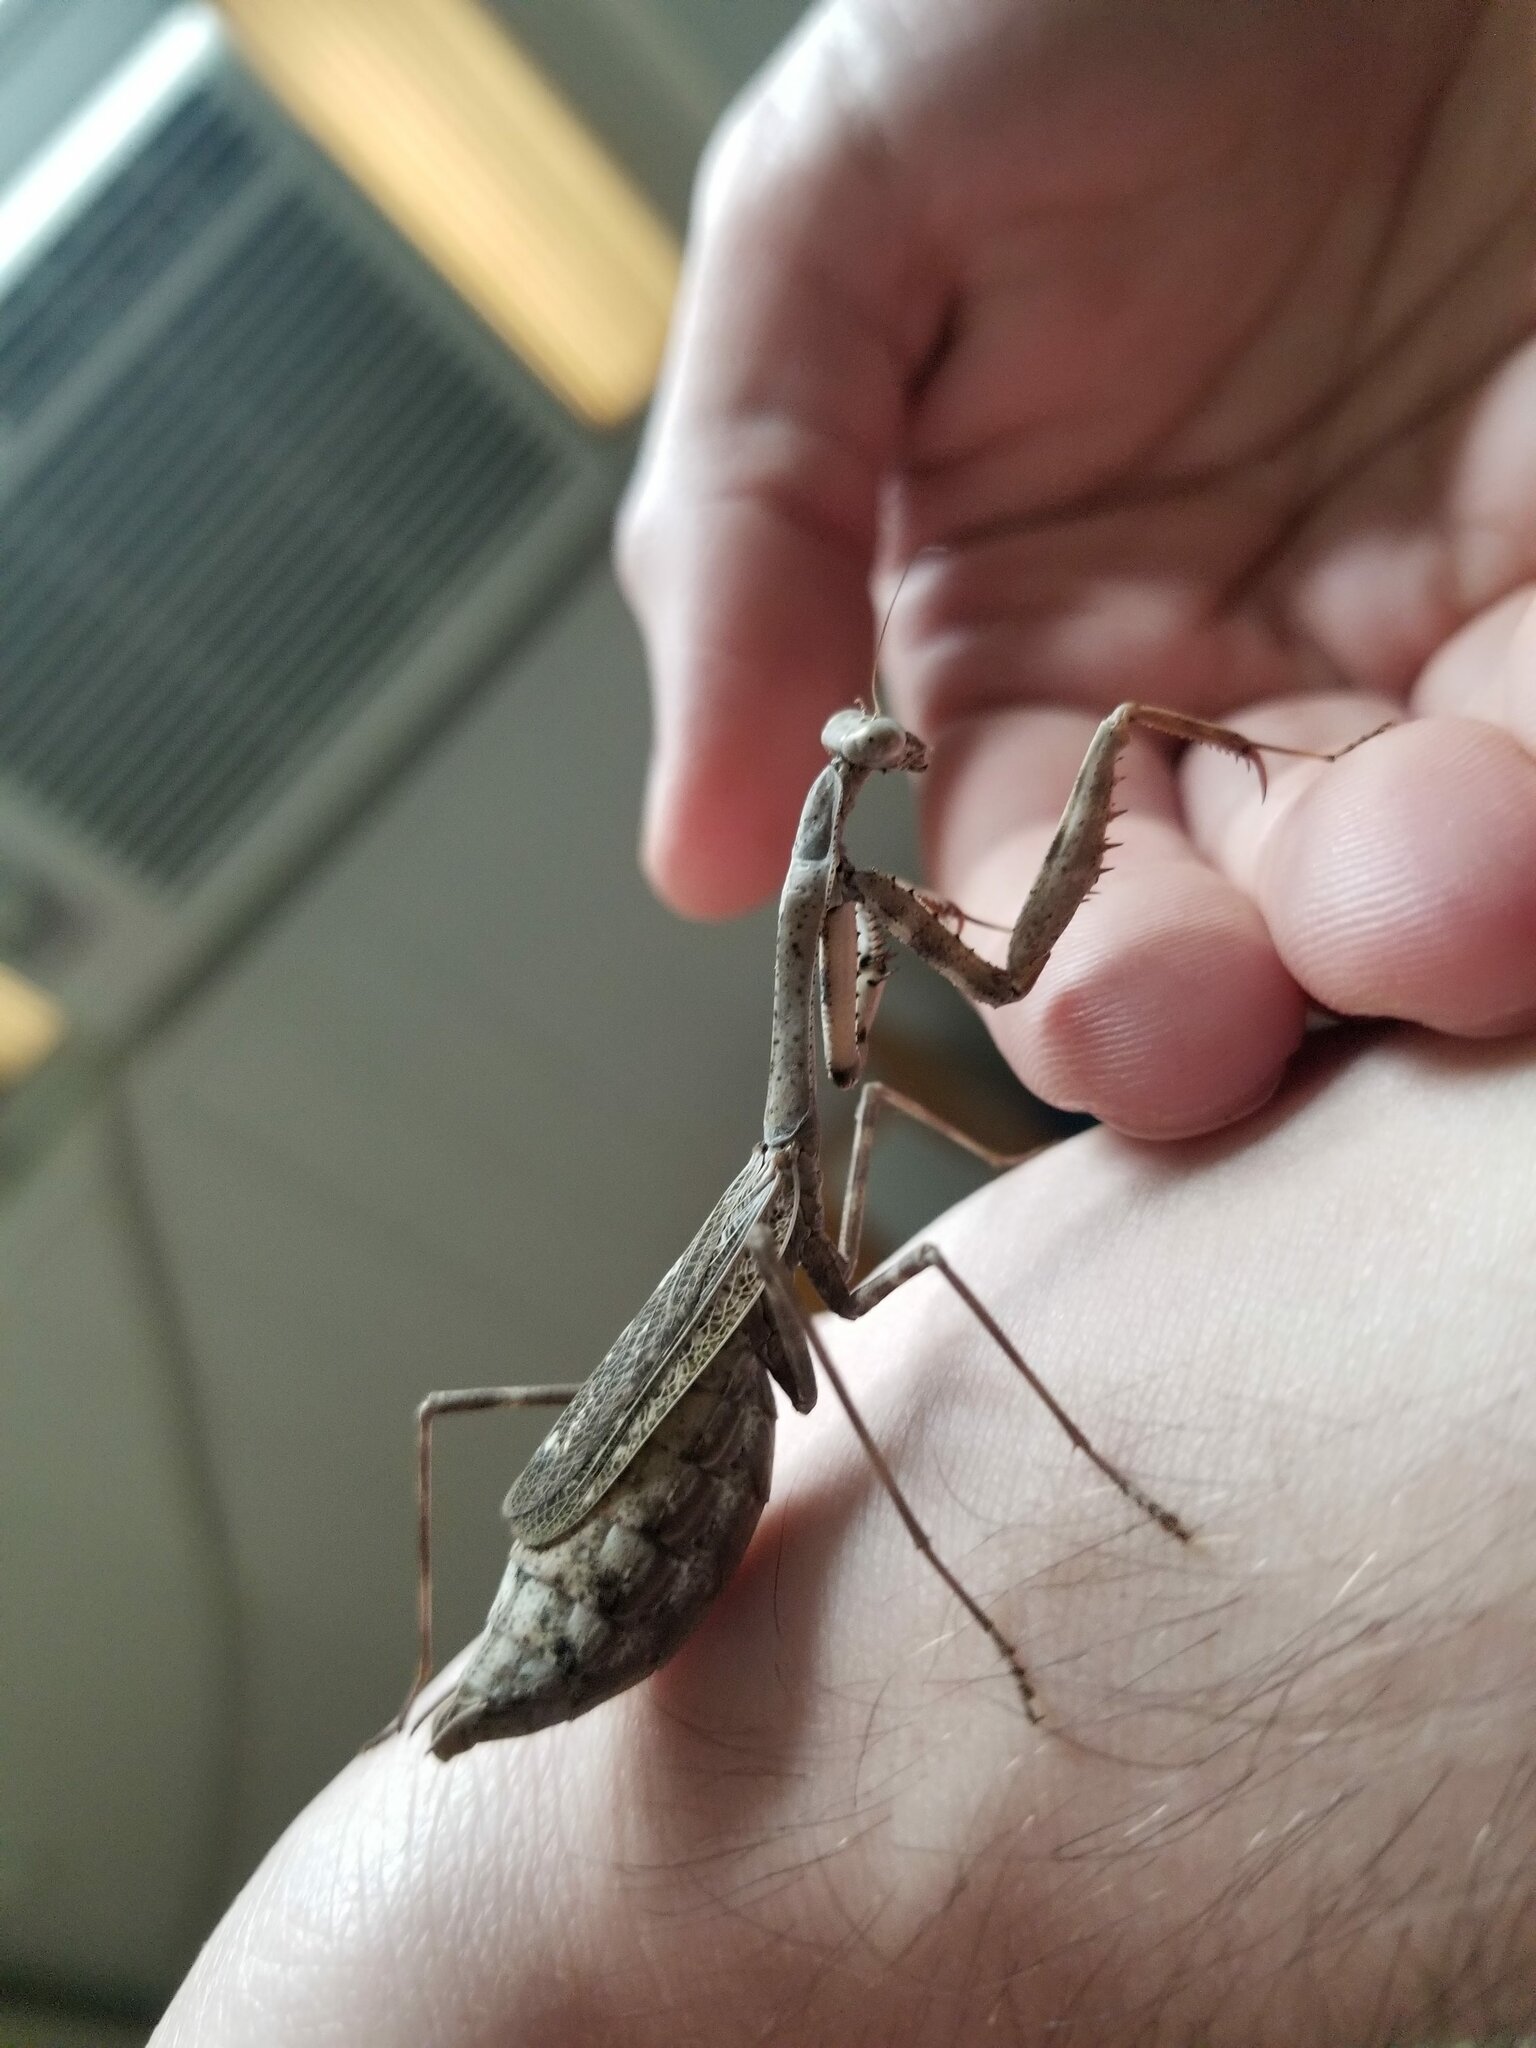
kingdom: Animalia
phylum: Arthropoda
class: Insecta
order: Mantodea
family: Mantidae
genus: Stagmomantis
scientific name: Stagmomantis carolina
